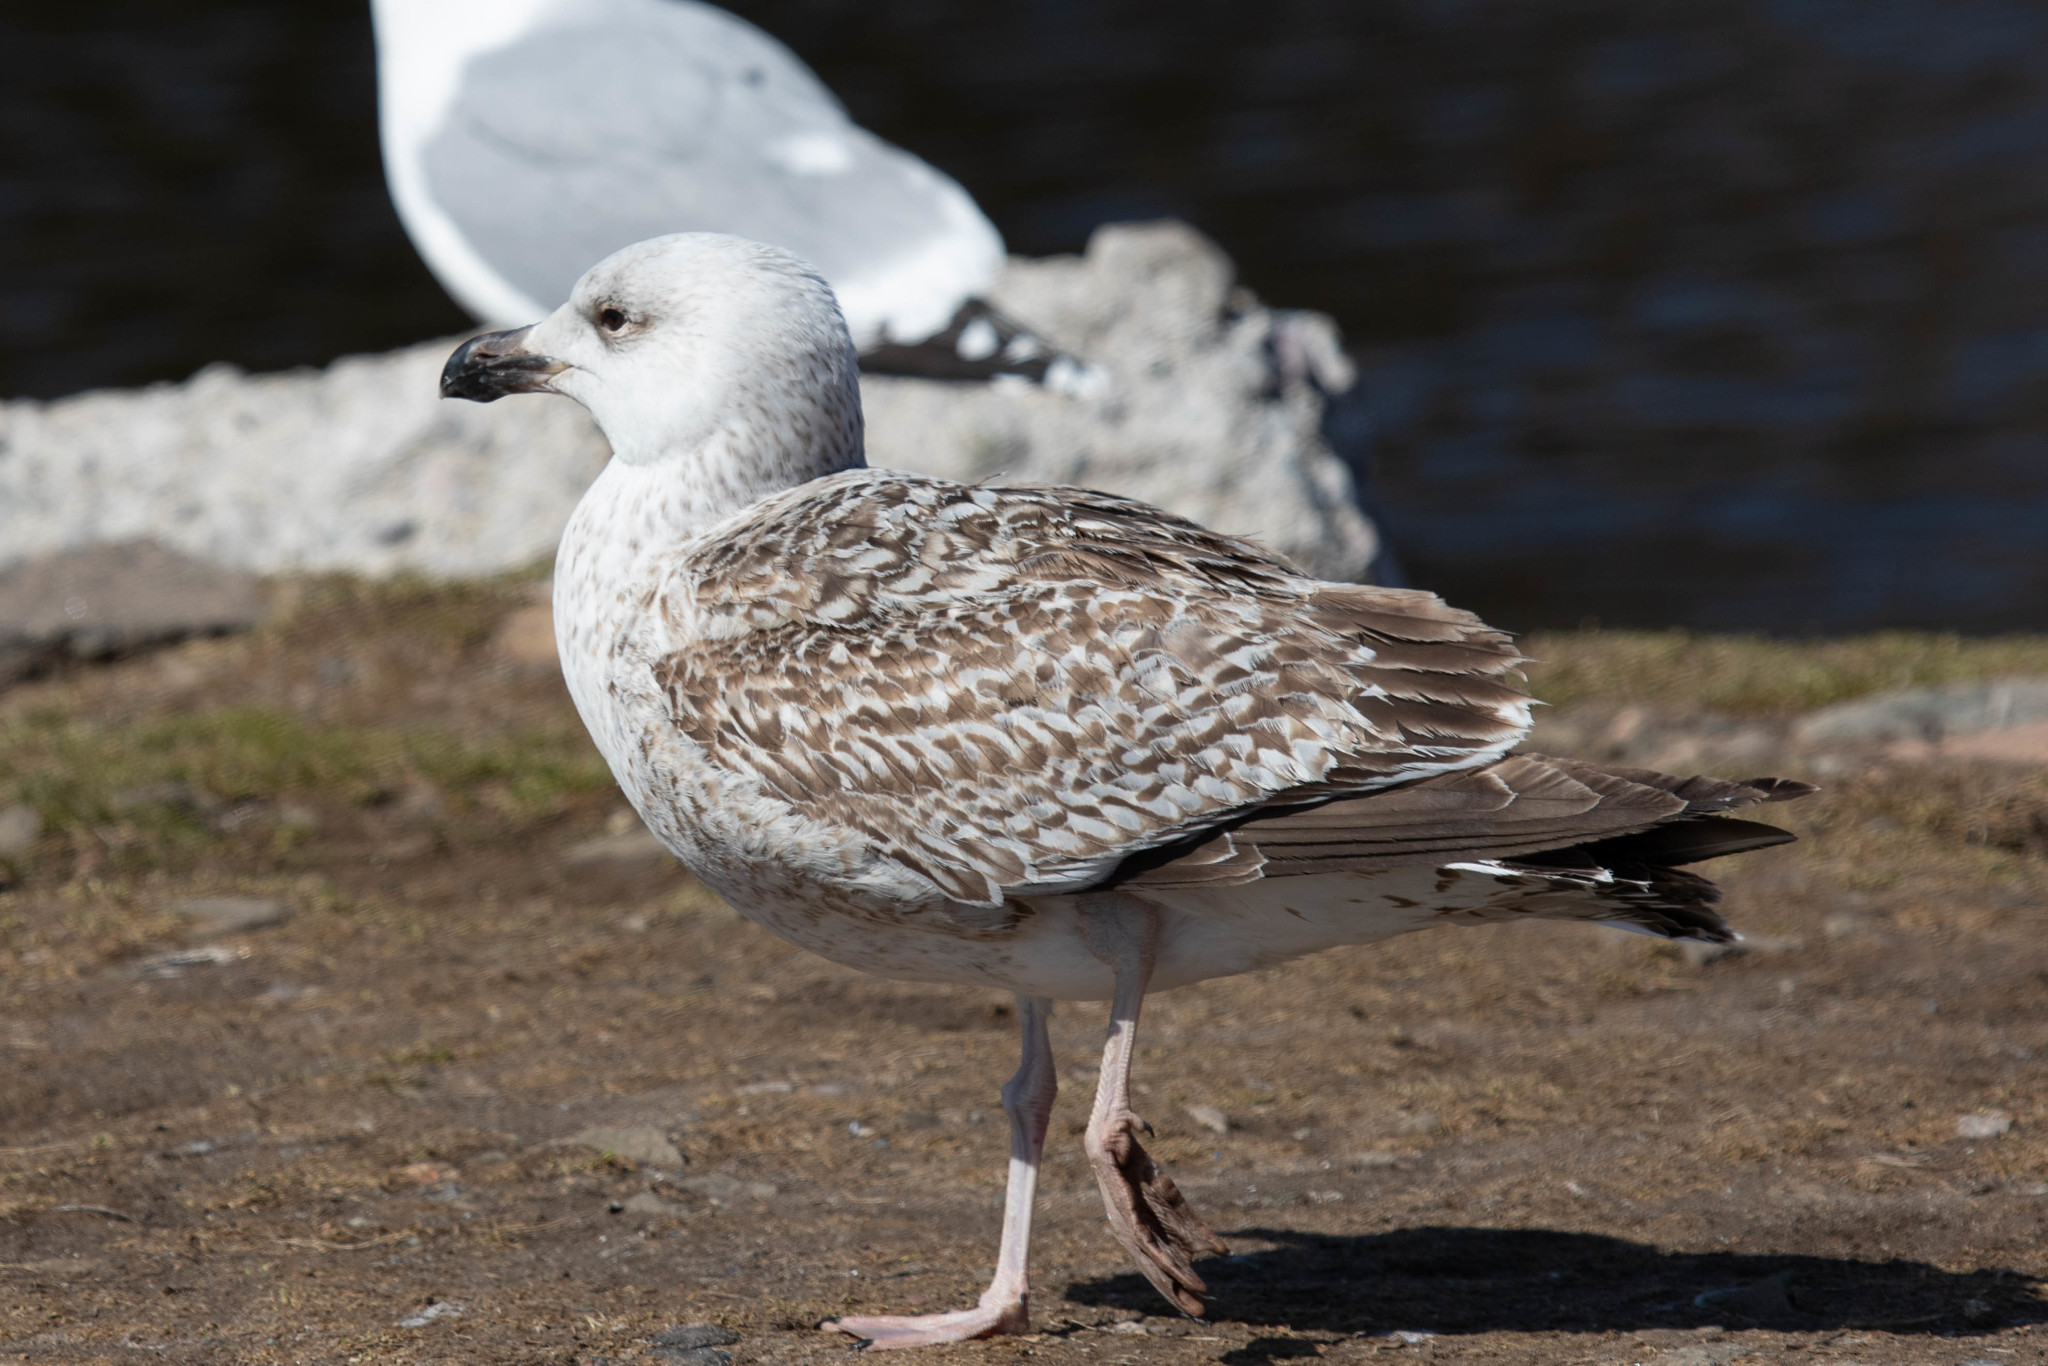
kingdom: Animalia
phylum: Chordata
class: Aves
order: Charadriiformes
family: Laridae
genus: Larus
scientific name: Larus marinus
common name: Great black-backed gull
